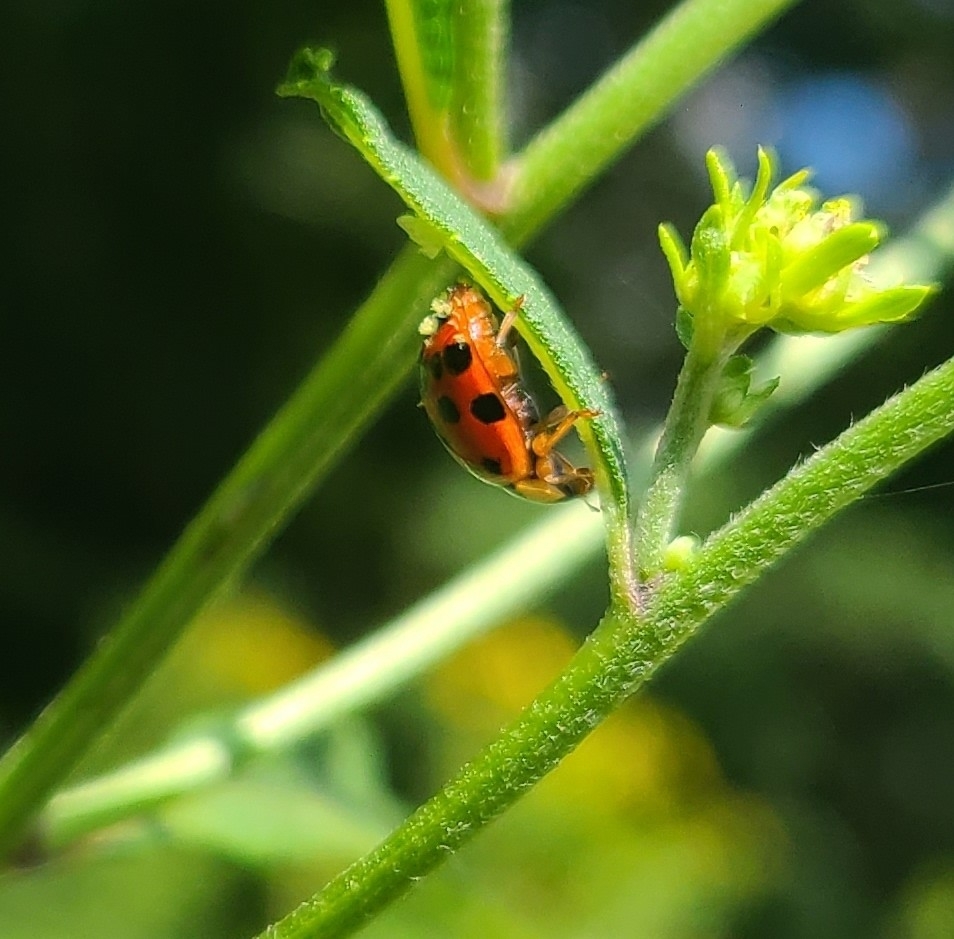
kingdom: Fungi
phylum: Ascomycota
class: Laboulbeniomycetes
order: Laboulbeniales
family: Laboulbeniaceae
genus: Hesperomyces
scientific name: Hesperomyces harmoniae
